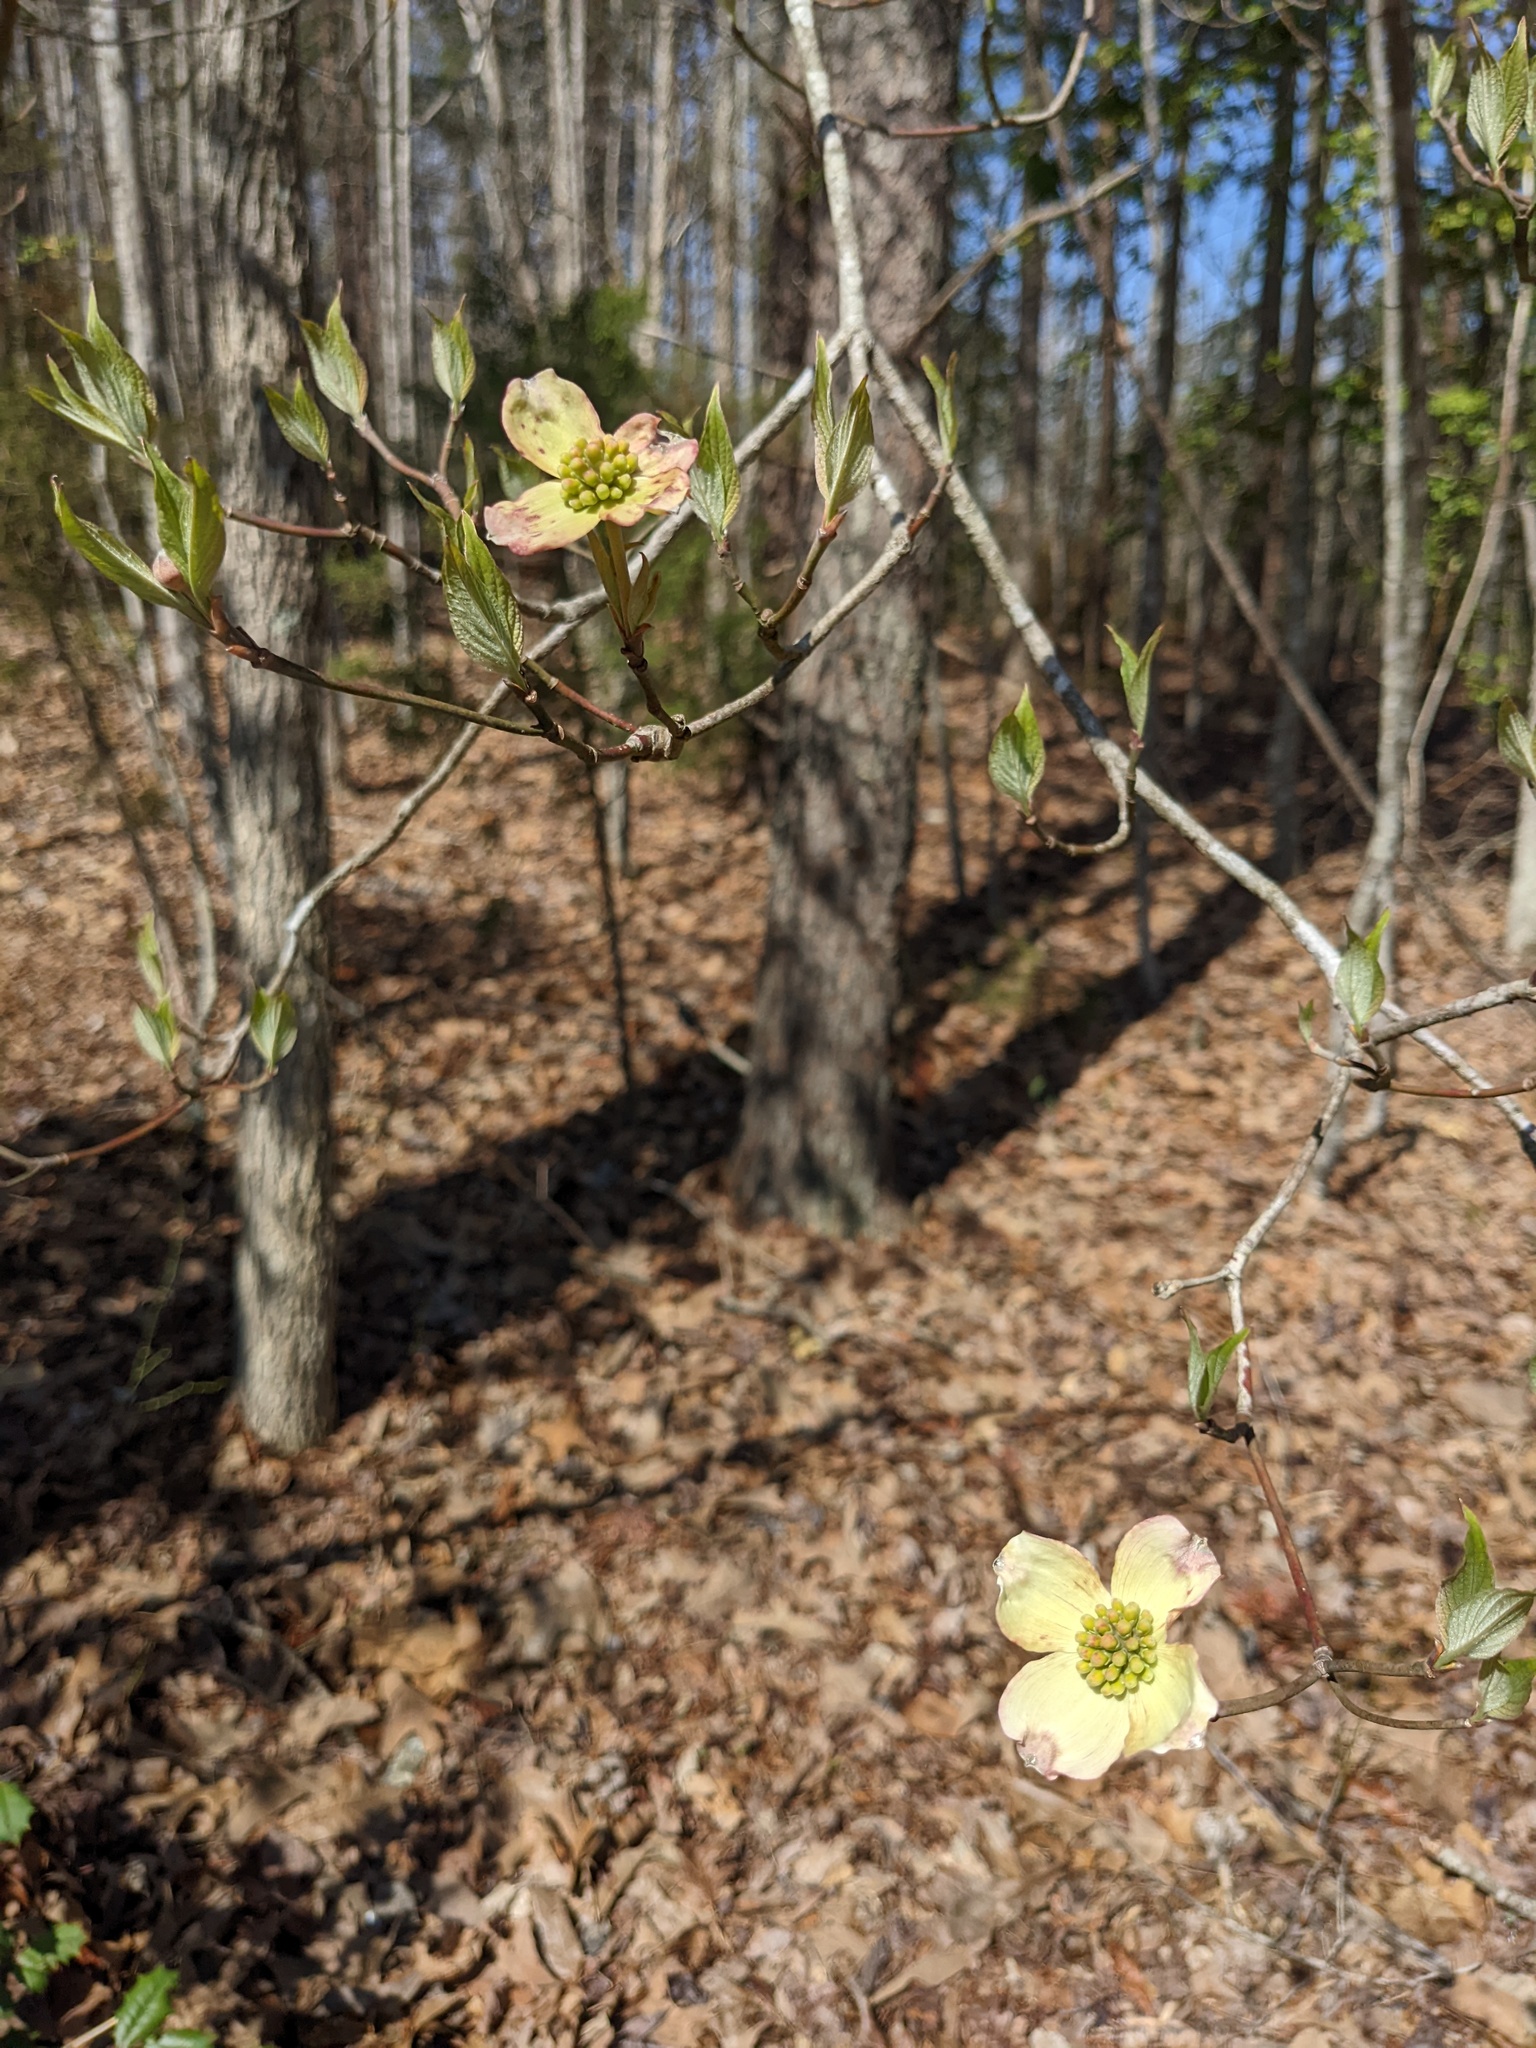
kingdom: Plantae
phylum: Tracheophyta
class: Magnoliopsida
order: Cornales
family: Cornaceae
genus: Cornus
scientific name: Cornus florida
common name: Flowering dogwood
